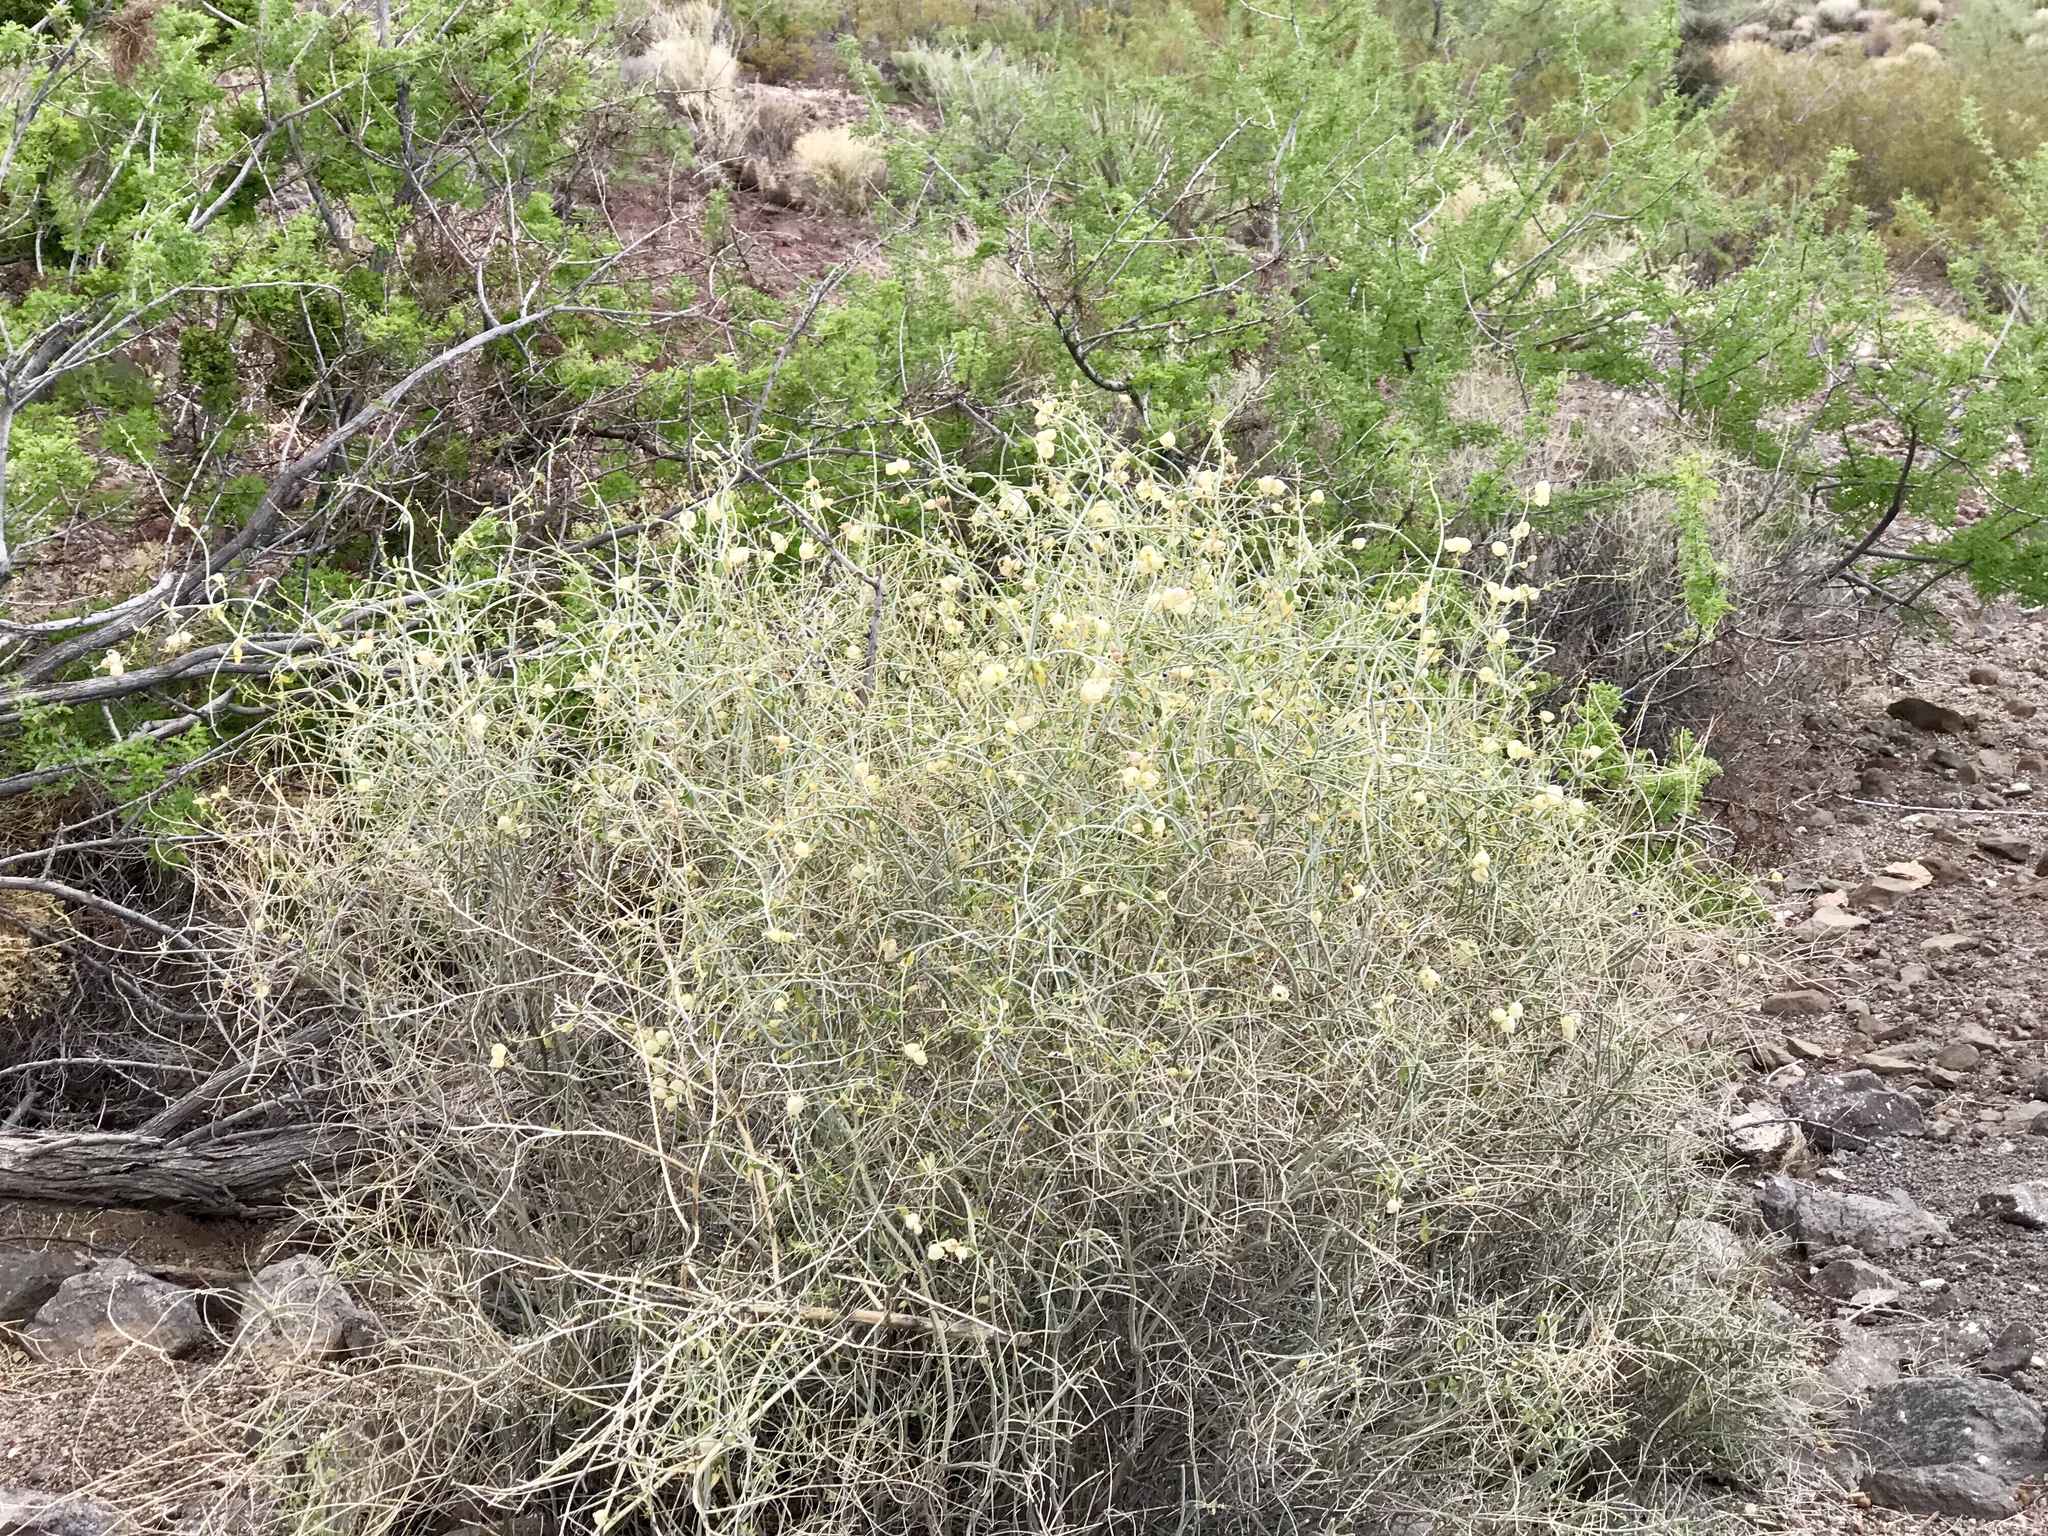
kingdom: Plantae
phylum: Tracheophyta
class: Magnoliopsida
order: Lamiales
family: Lamiaceae
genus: Scutellaria
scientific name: Scutellaria mexicana
